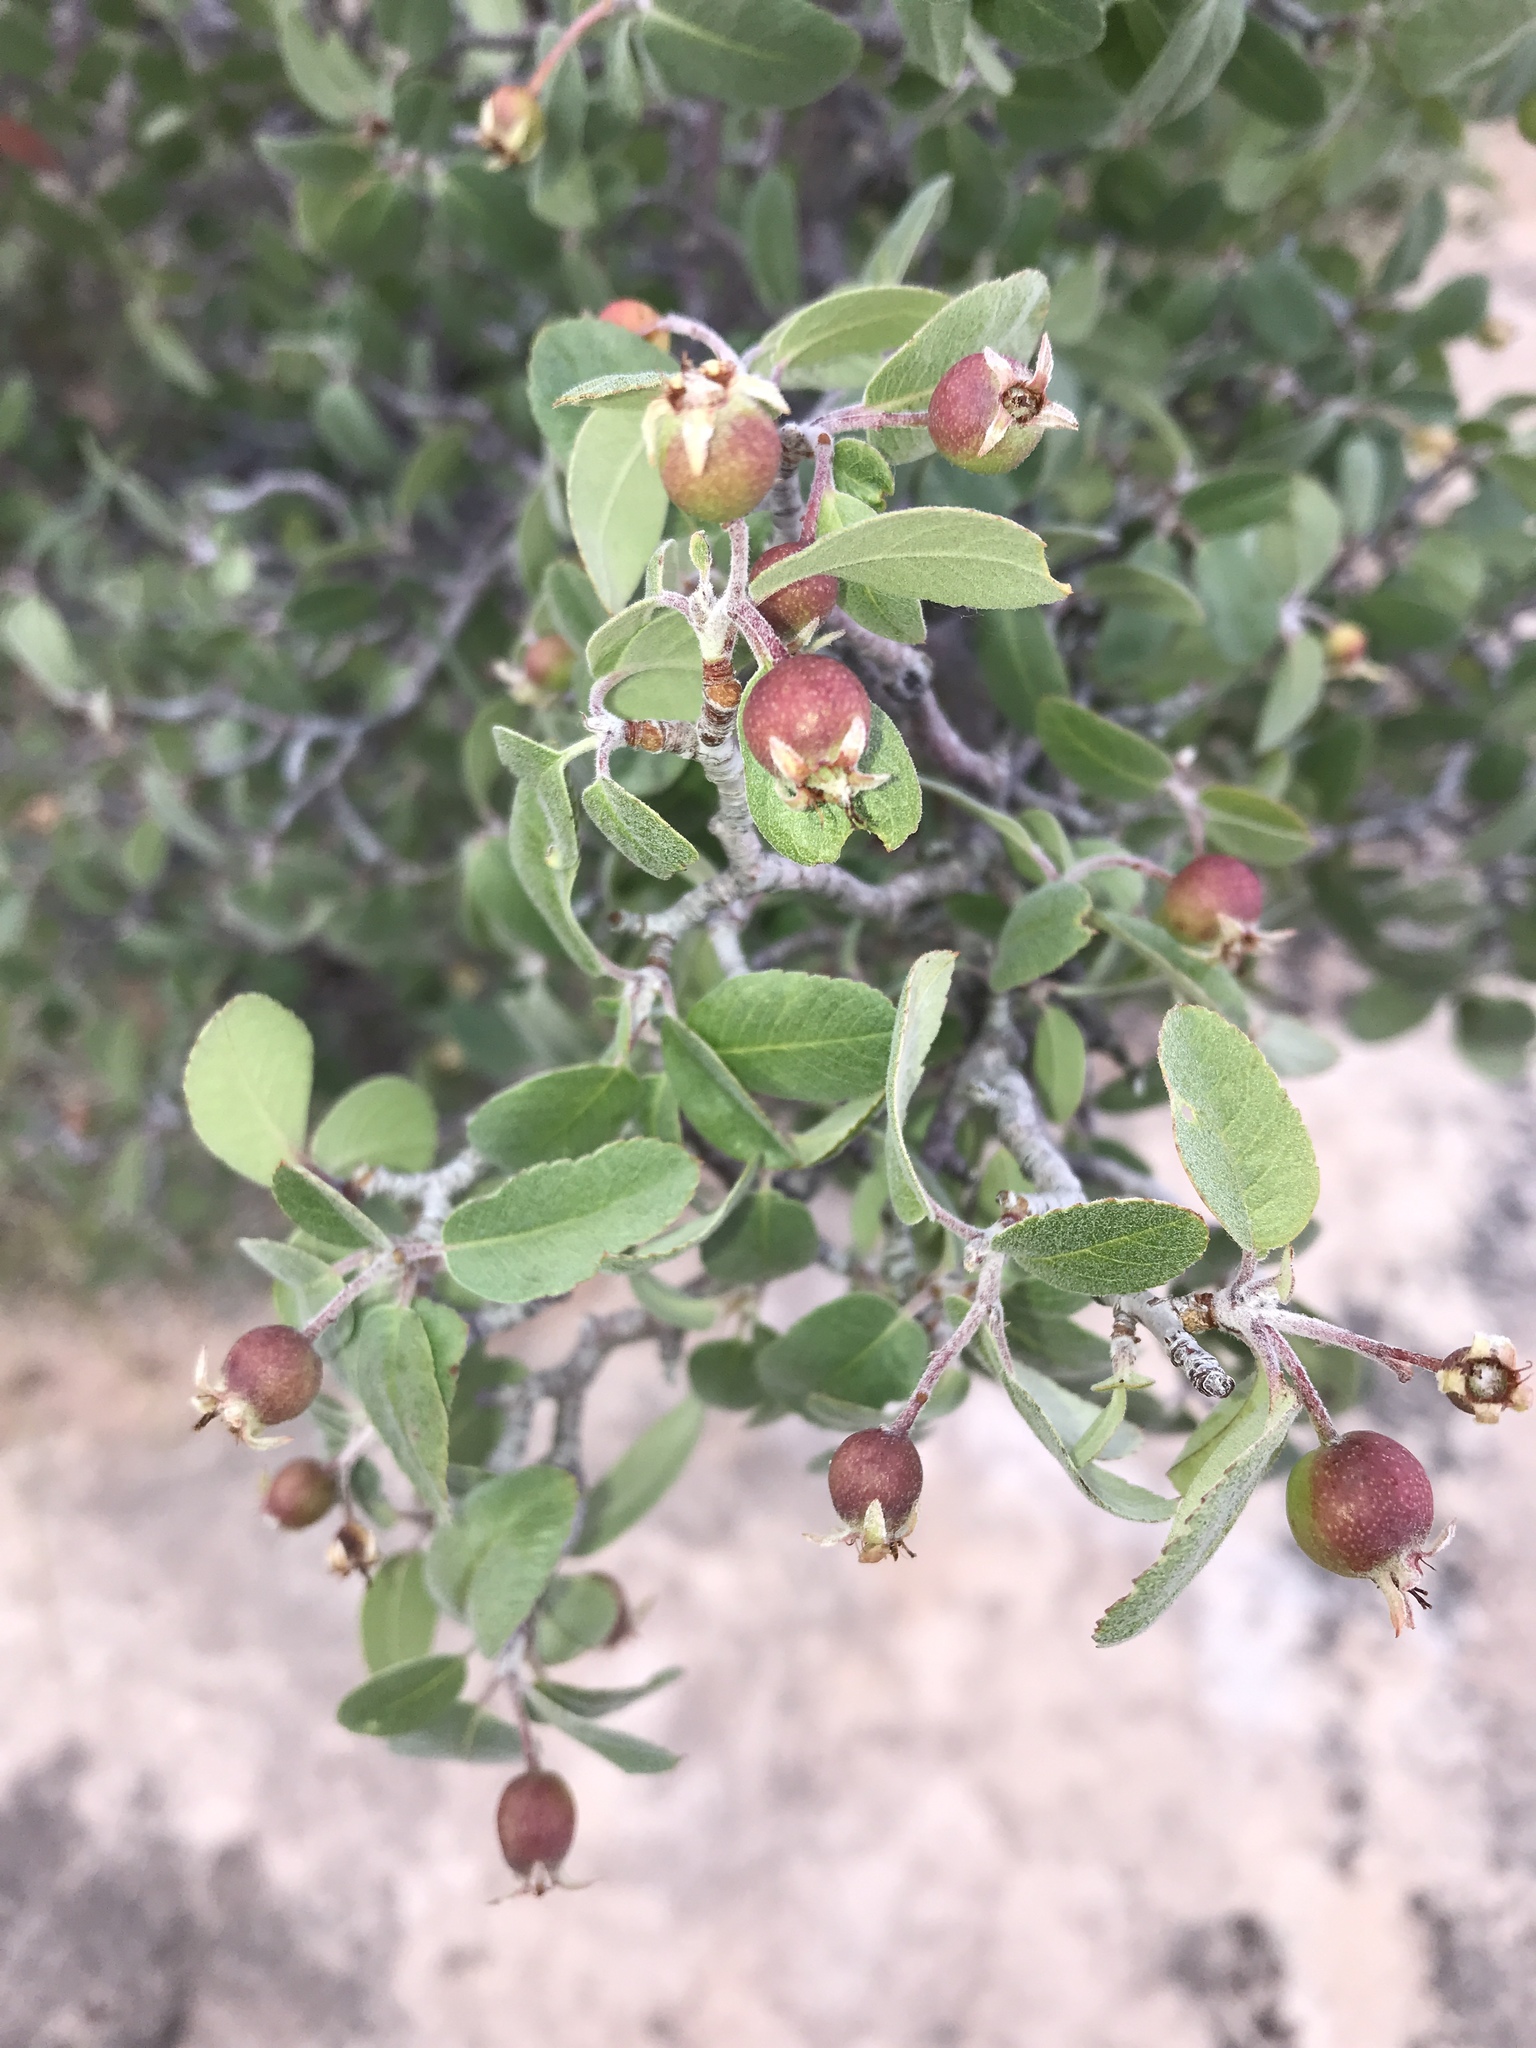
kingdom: Plantae
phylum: Tracheophyta
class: Magnoliopsida
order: Rosales
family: Rosaceae
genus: Amelanchier
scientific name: Amelanchier utahensis
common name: Utah serviceberry
